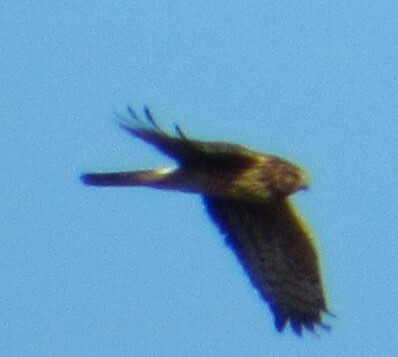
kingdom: Animalia
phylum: Chordata
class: Aves
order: Accipitriformes
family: Accipitridae
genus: Circus
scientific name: Circus cyaneus
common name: Hen harrier
